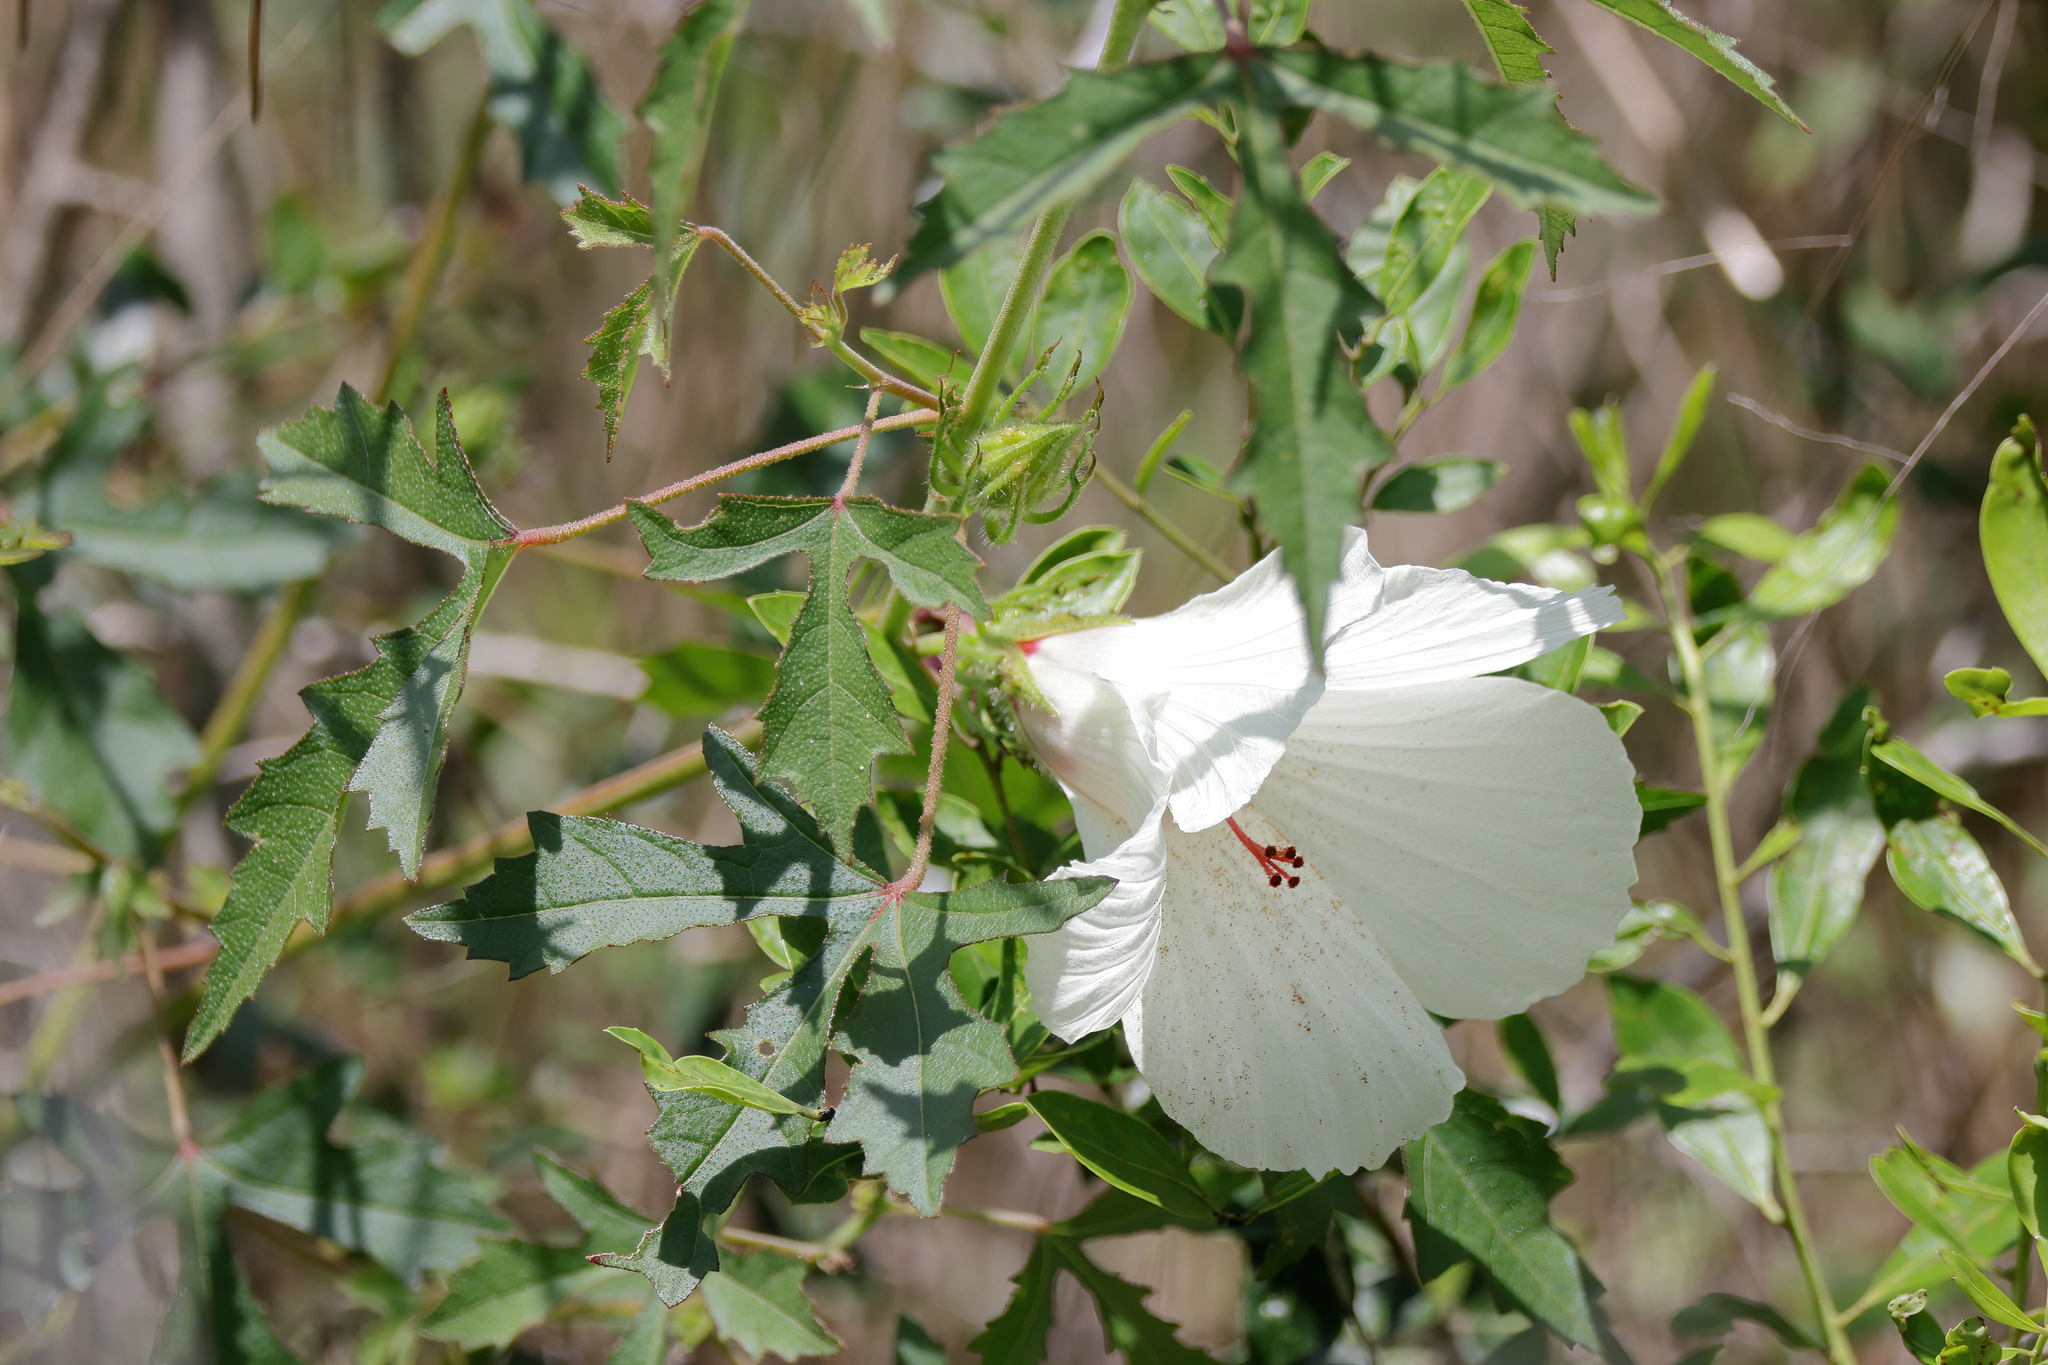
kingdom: Plantae
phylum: Tracheophyta
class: Magnoliopsida
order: Malvales
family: Malvaceae
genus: Hibiscus
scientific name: Hibiscus aculeatus
